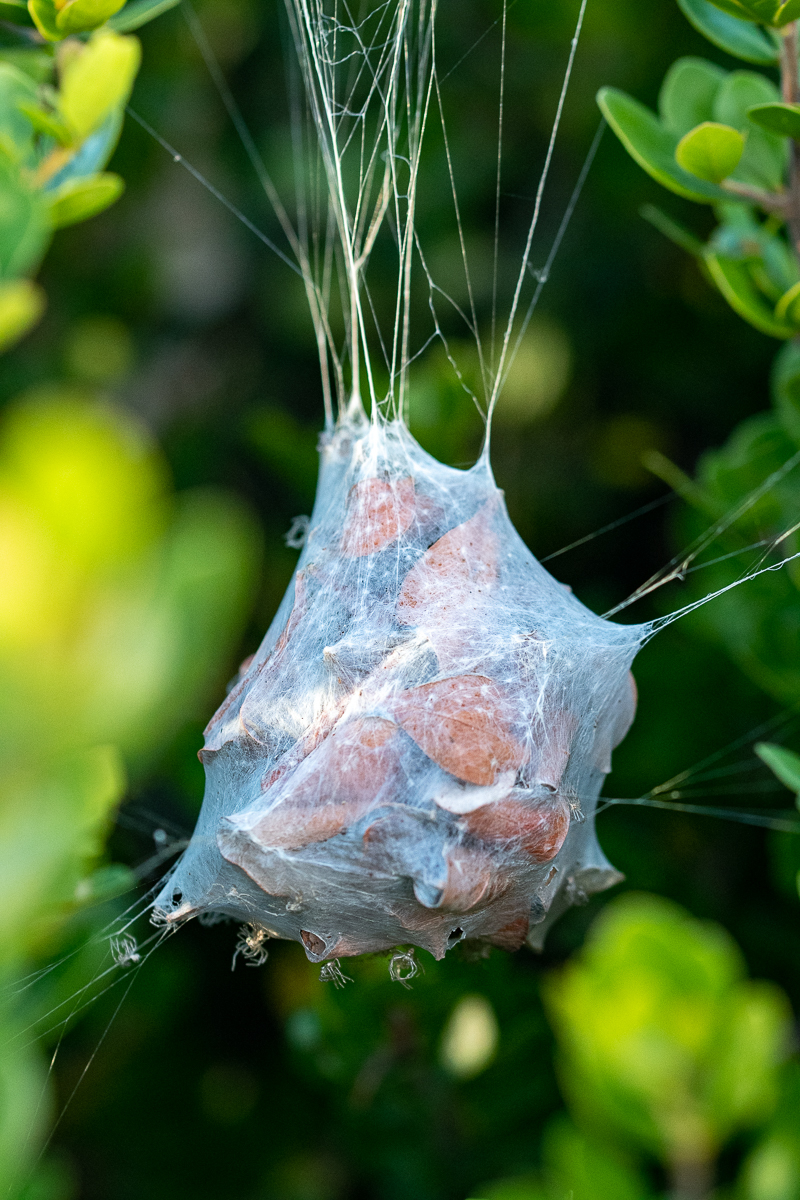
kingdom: Animalia
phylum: Arthropoda
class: Arachnida
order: Araneae
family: Sparassidae
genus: Palystes
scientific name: Palystes superciliosus
